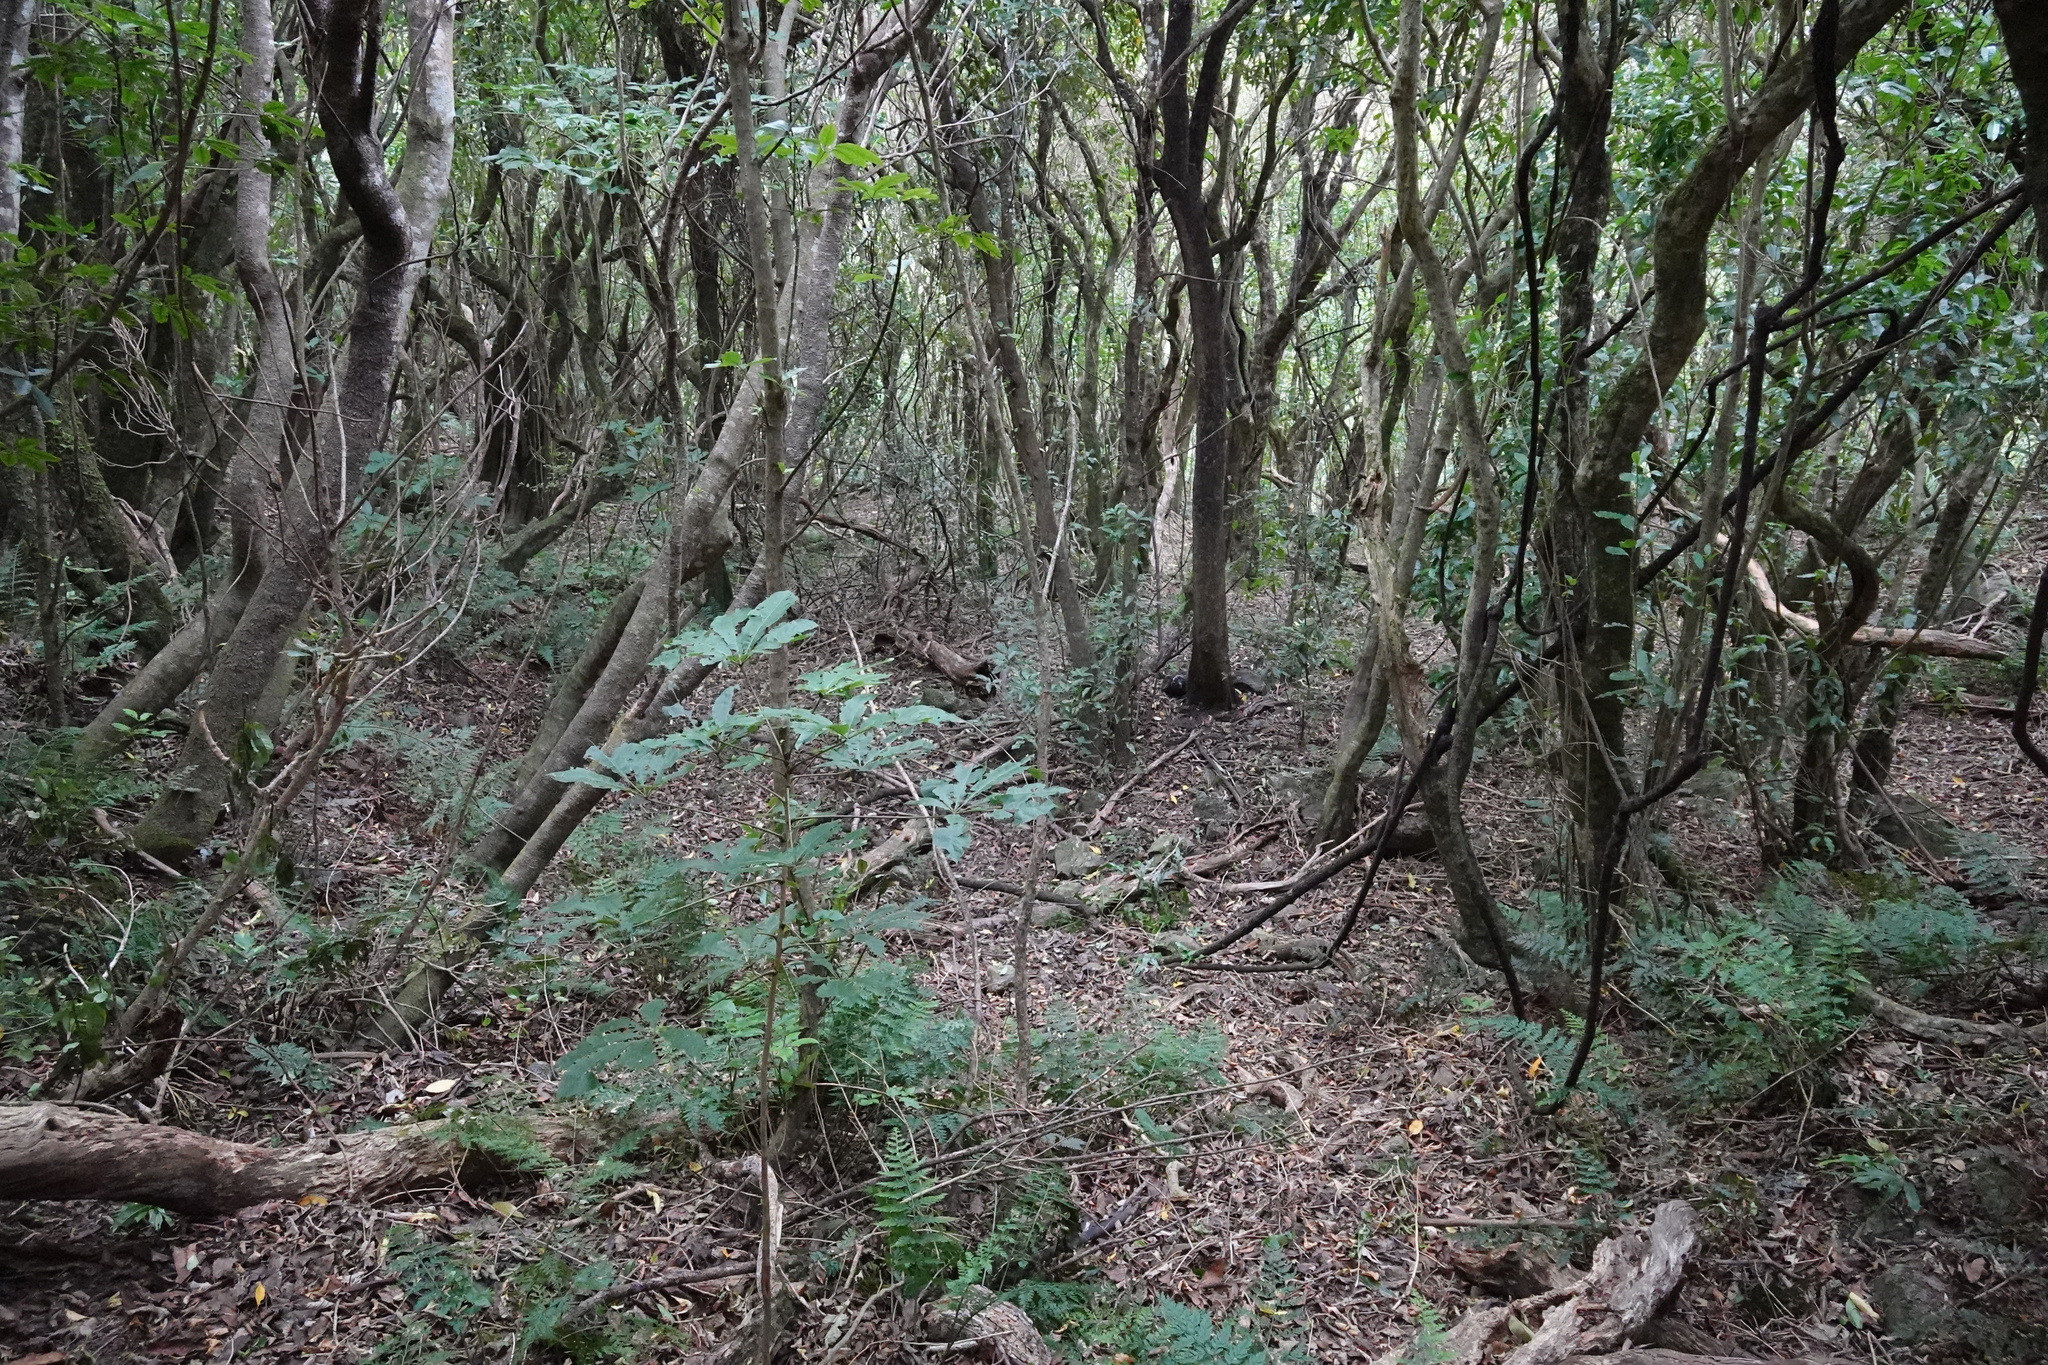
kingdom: Plantae
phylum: Tracheophyta
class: Magnoliopsida
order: Apiales
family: Araliaceae
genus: Schefflera
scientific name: Schefflera digitata
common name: Pate
